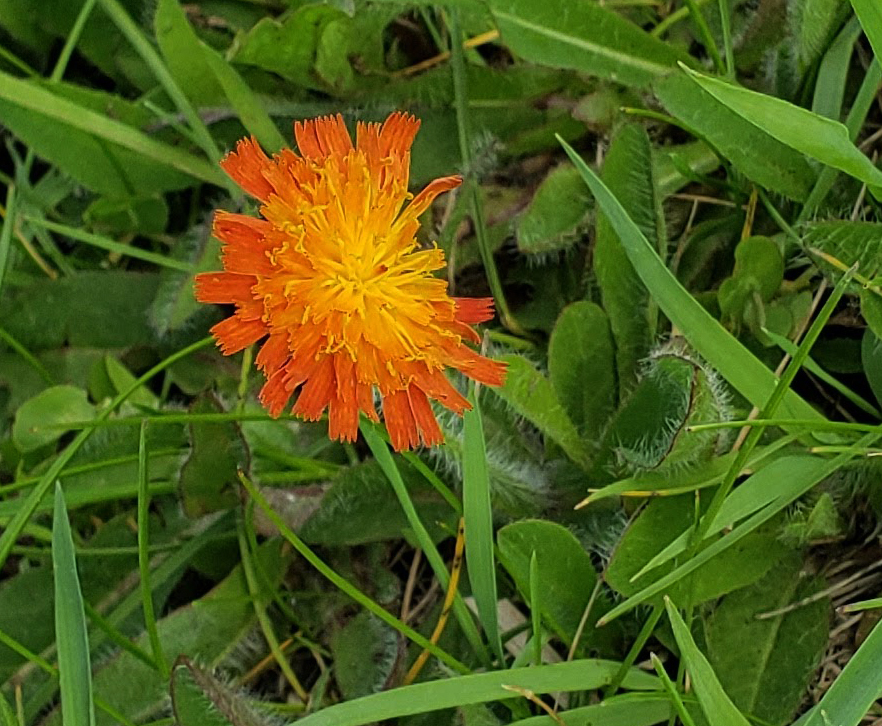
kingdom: Plantae
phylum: Tracheophyta
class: Magnoliopsida
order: Asterales
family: Asteraceae
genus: Pilosella
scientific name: Pilosella aurantiaca
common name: Fox-and-cubs
